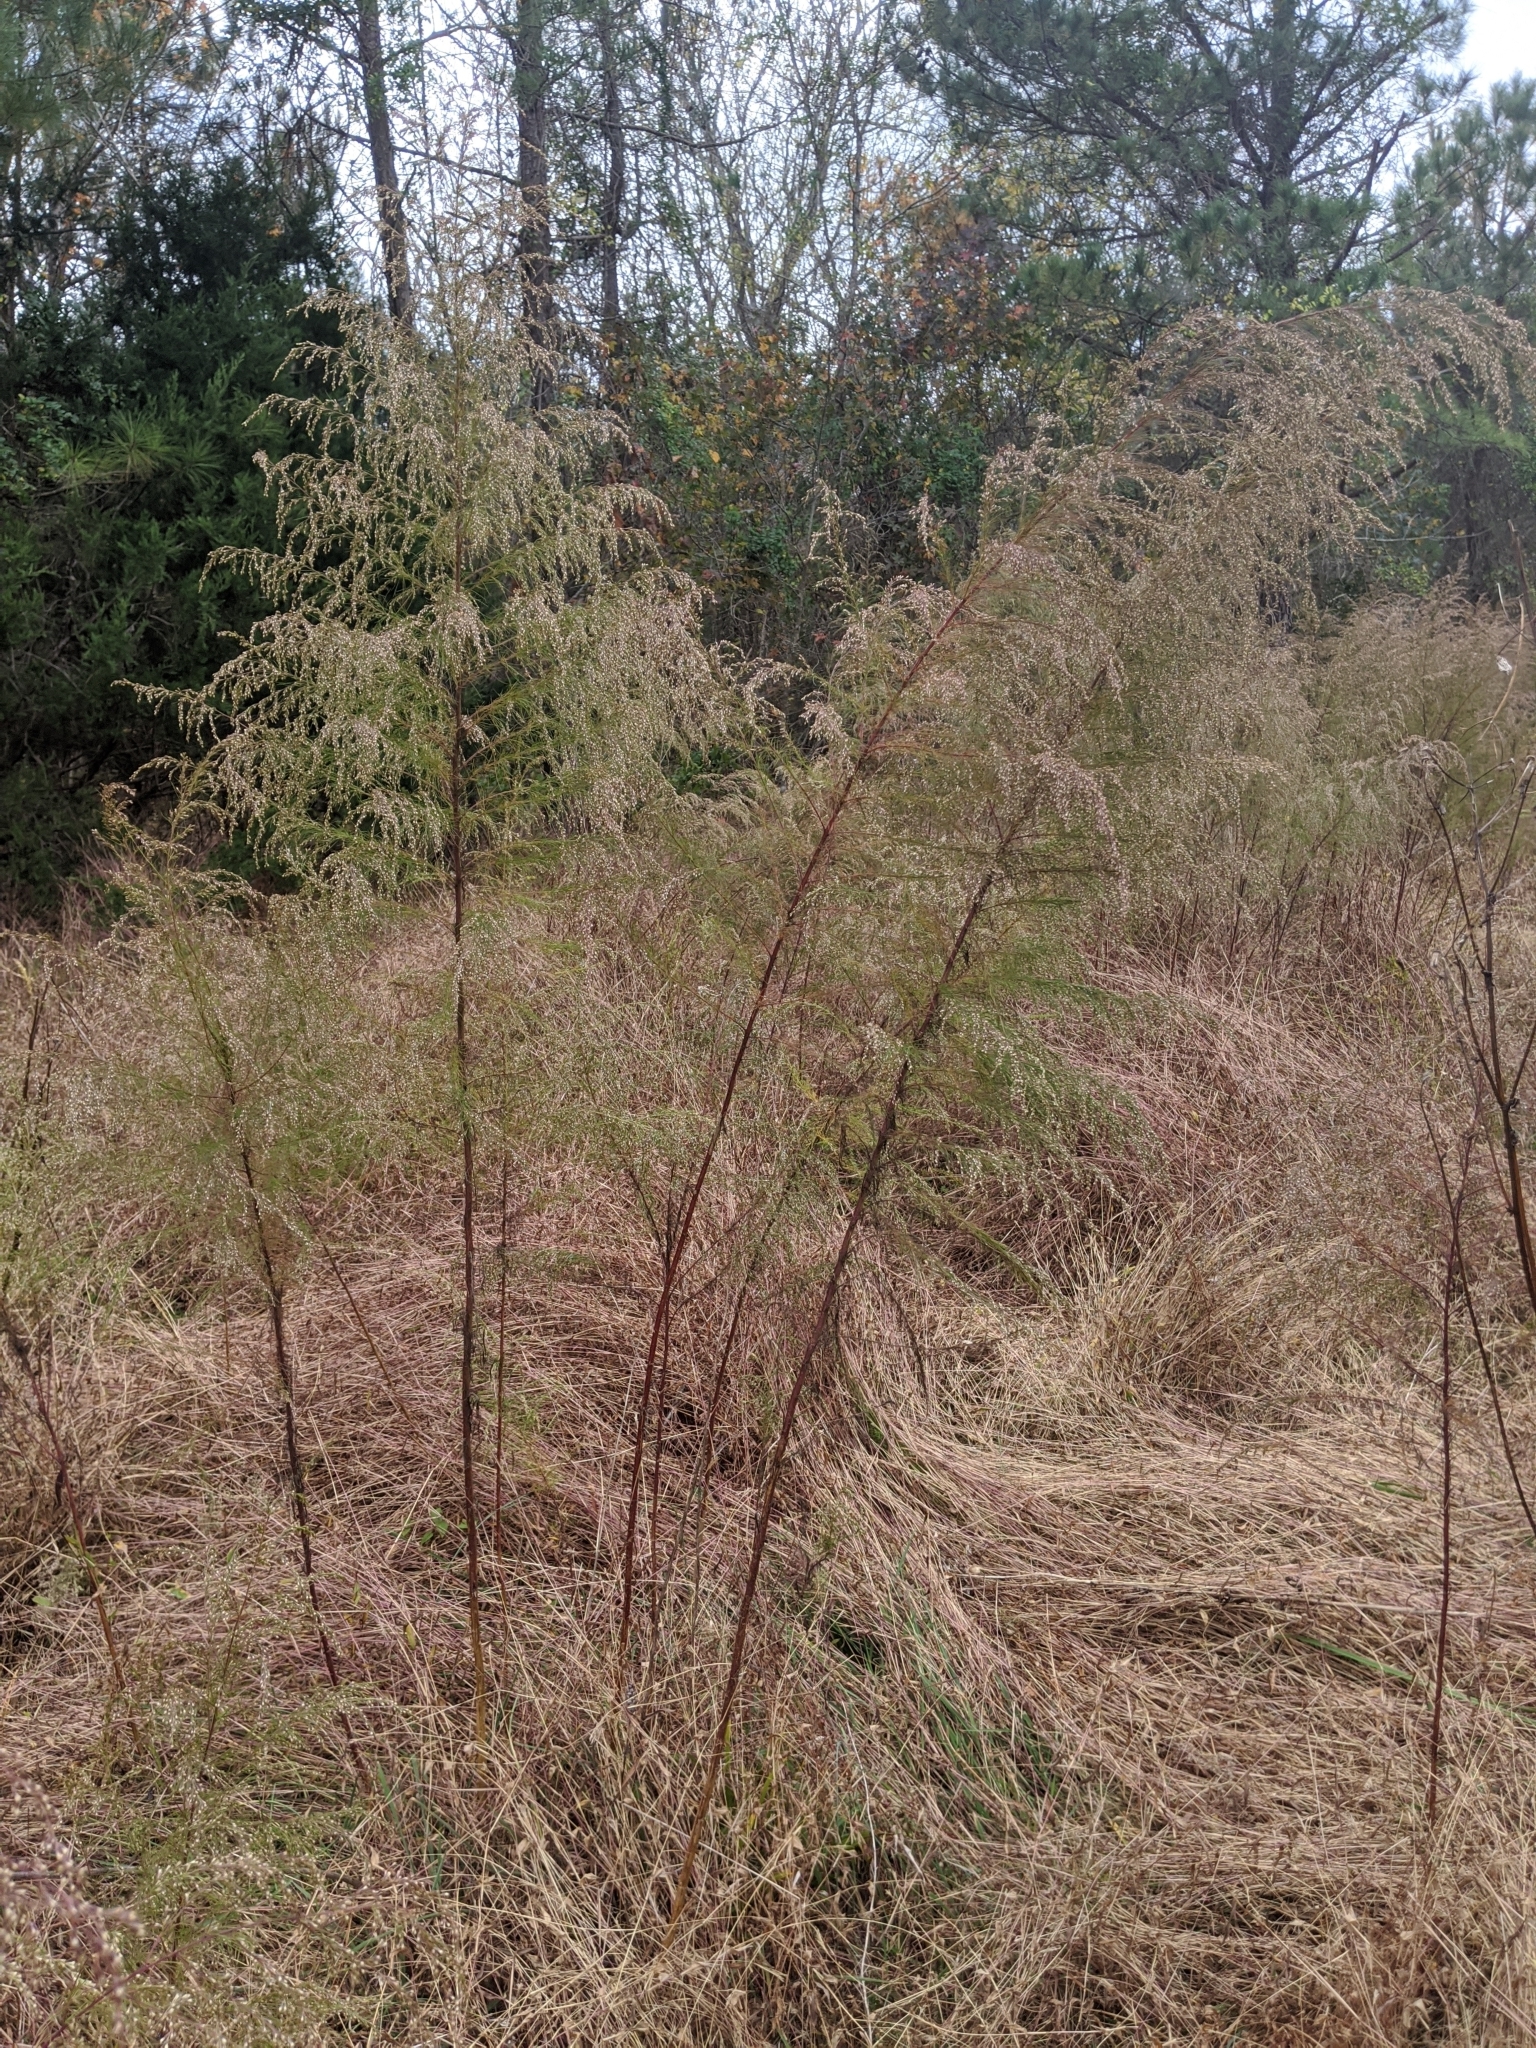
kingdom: Plantae
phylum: Tracheophyta
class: Magnoliopsida
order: Asterales
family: Asteraceae
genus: Eupatorium
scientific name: Eupatorium capillifolium
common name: Dog-fennel
